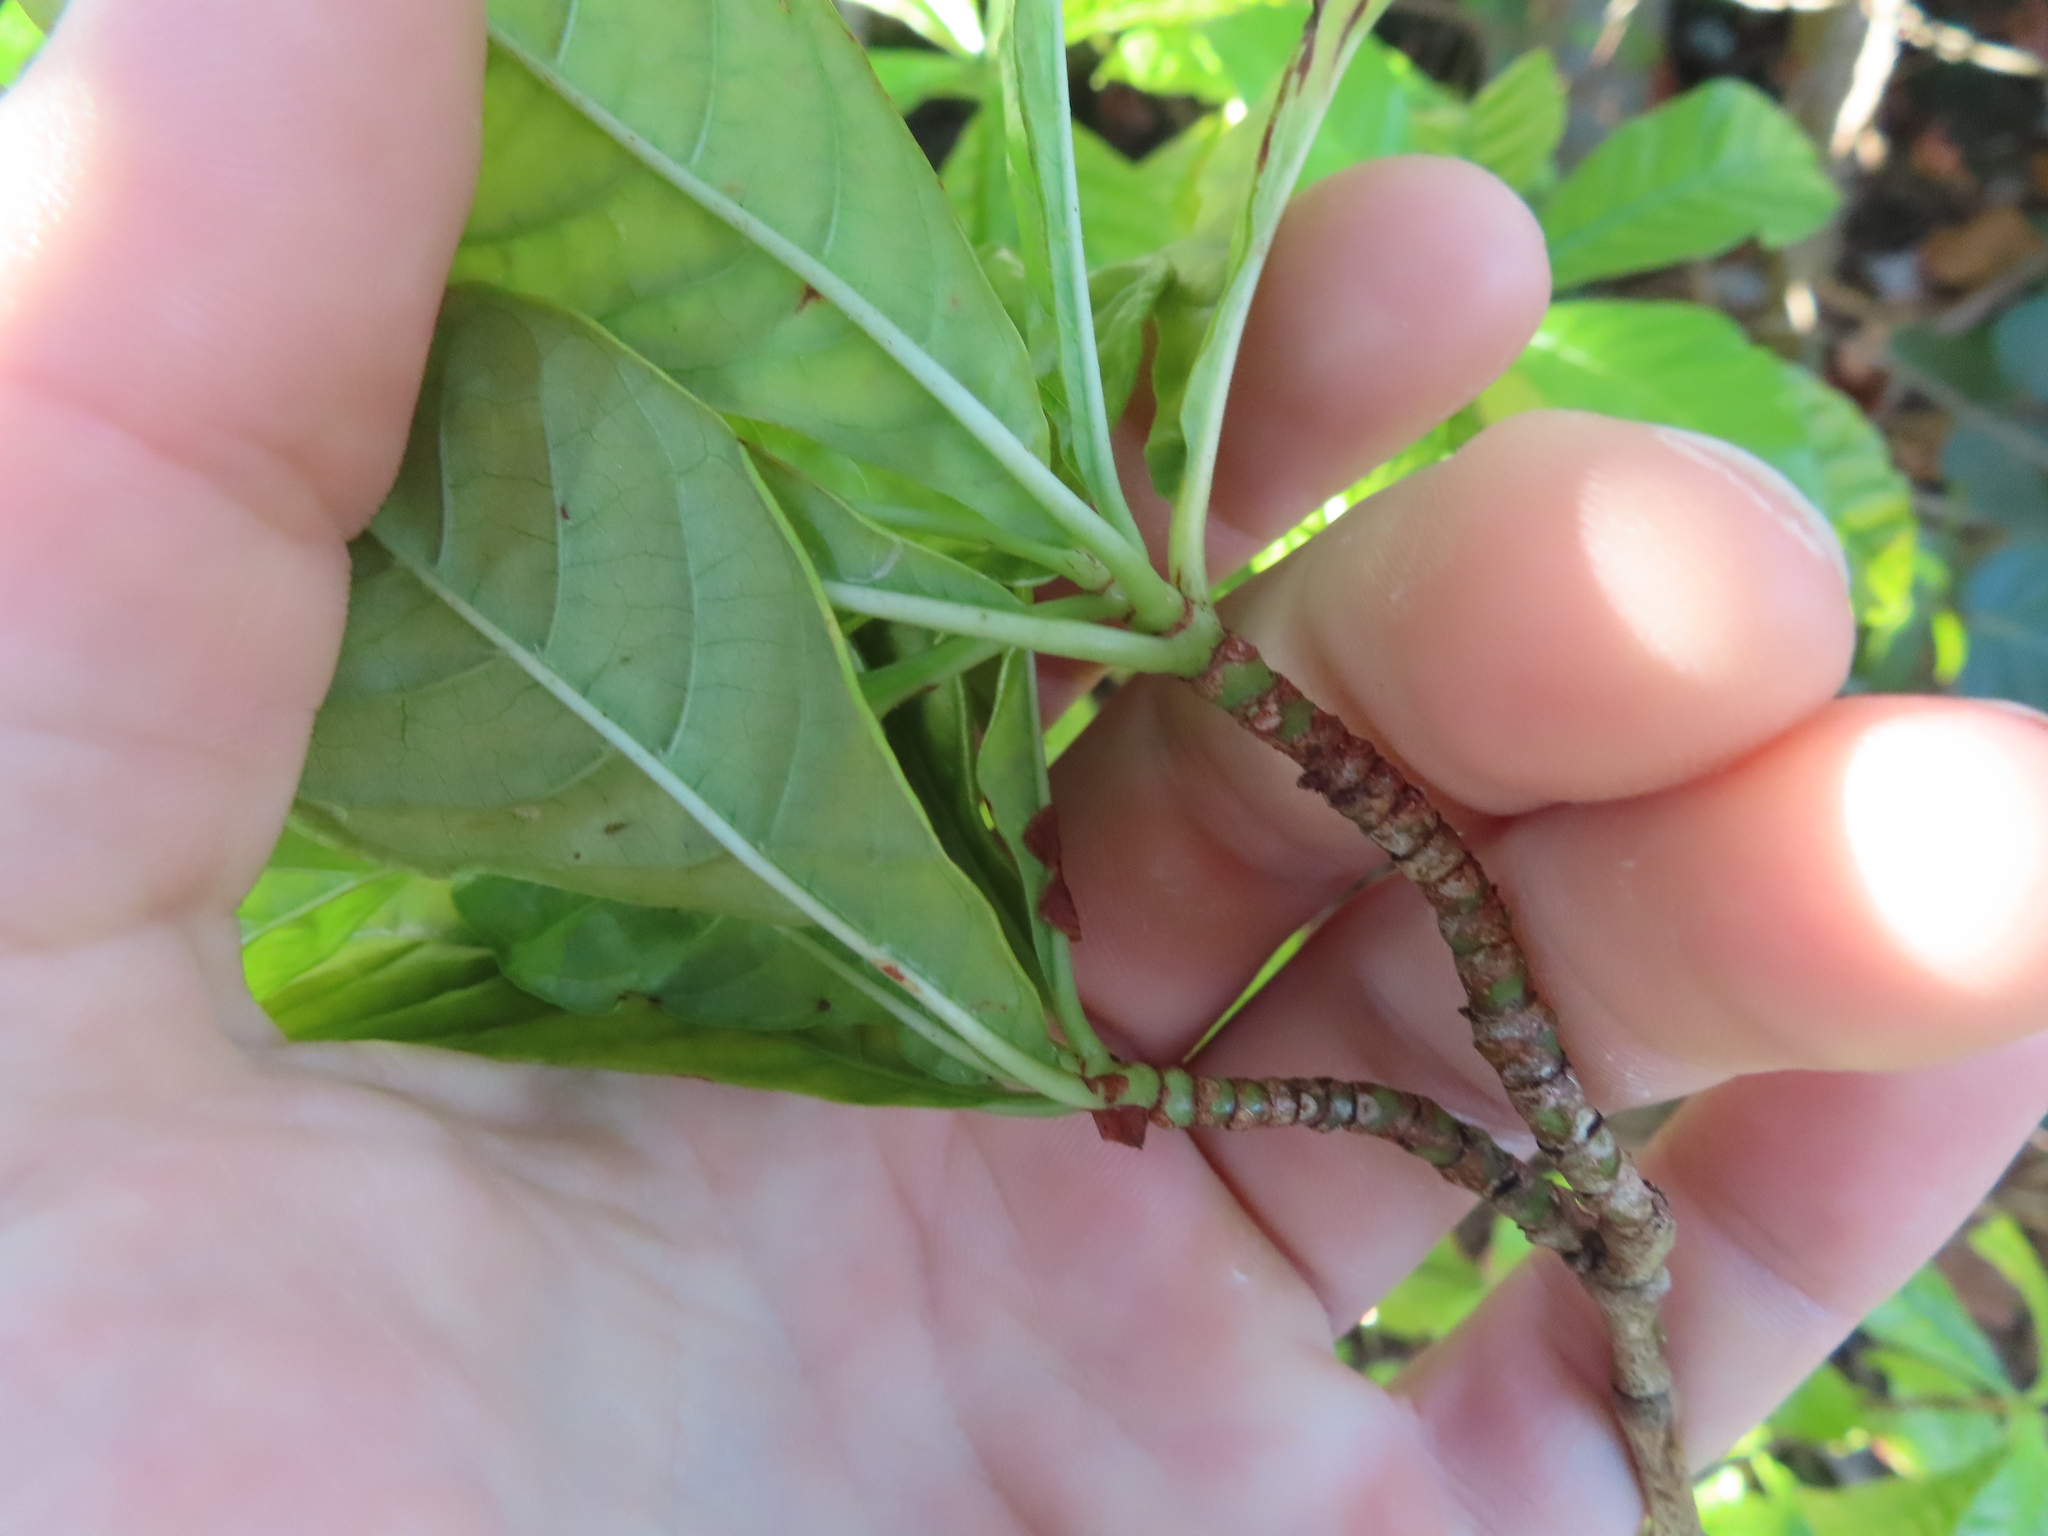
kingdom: Plantae
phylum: Tracheophyta
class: Magnoliopsida
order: Gentianales
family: Rubiaceae
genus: Psychotria
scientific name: Psychotria nervosa
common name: Bastard cankerberry
